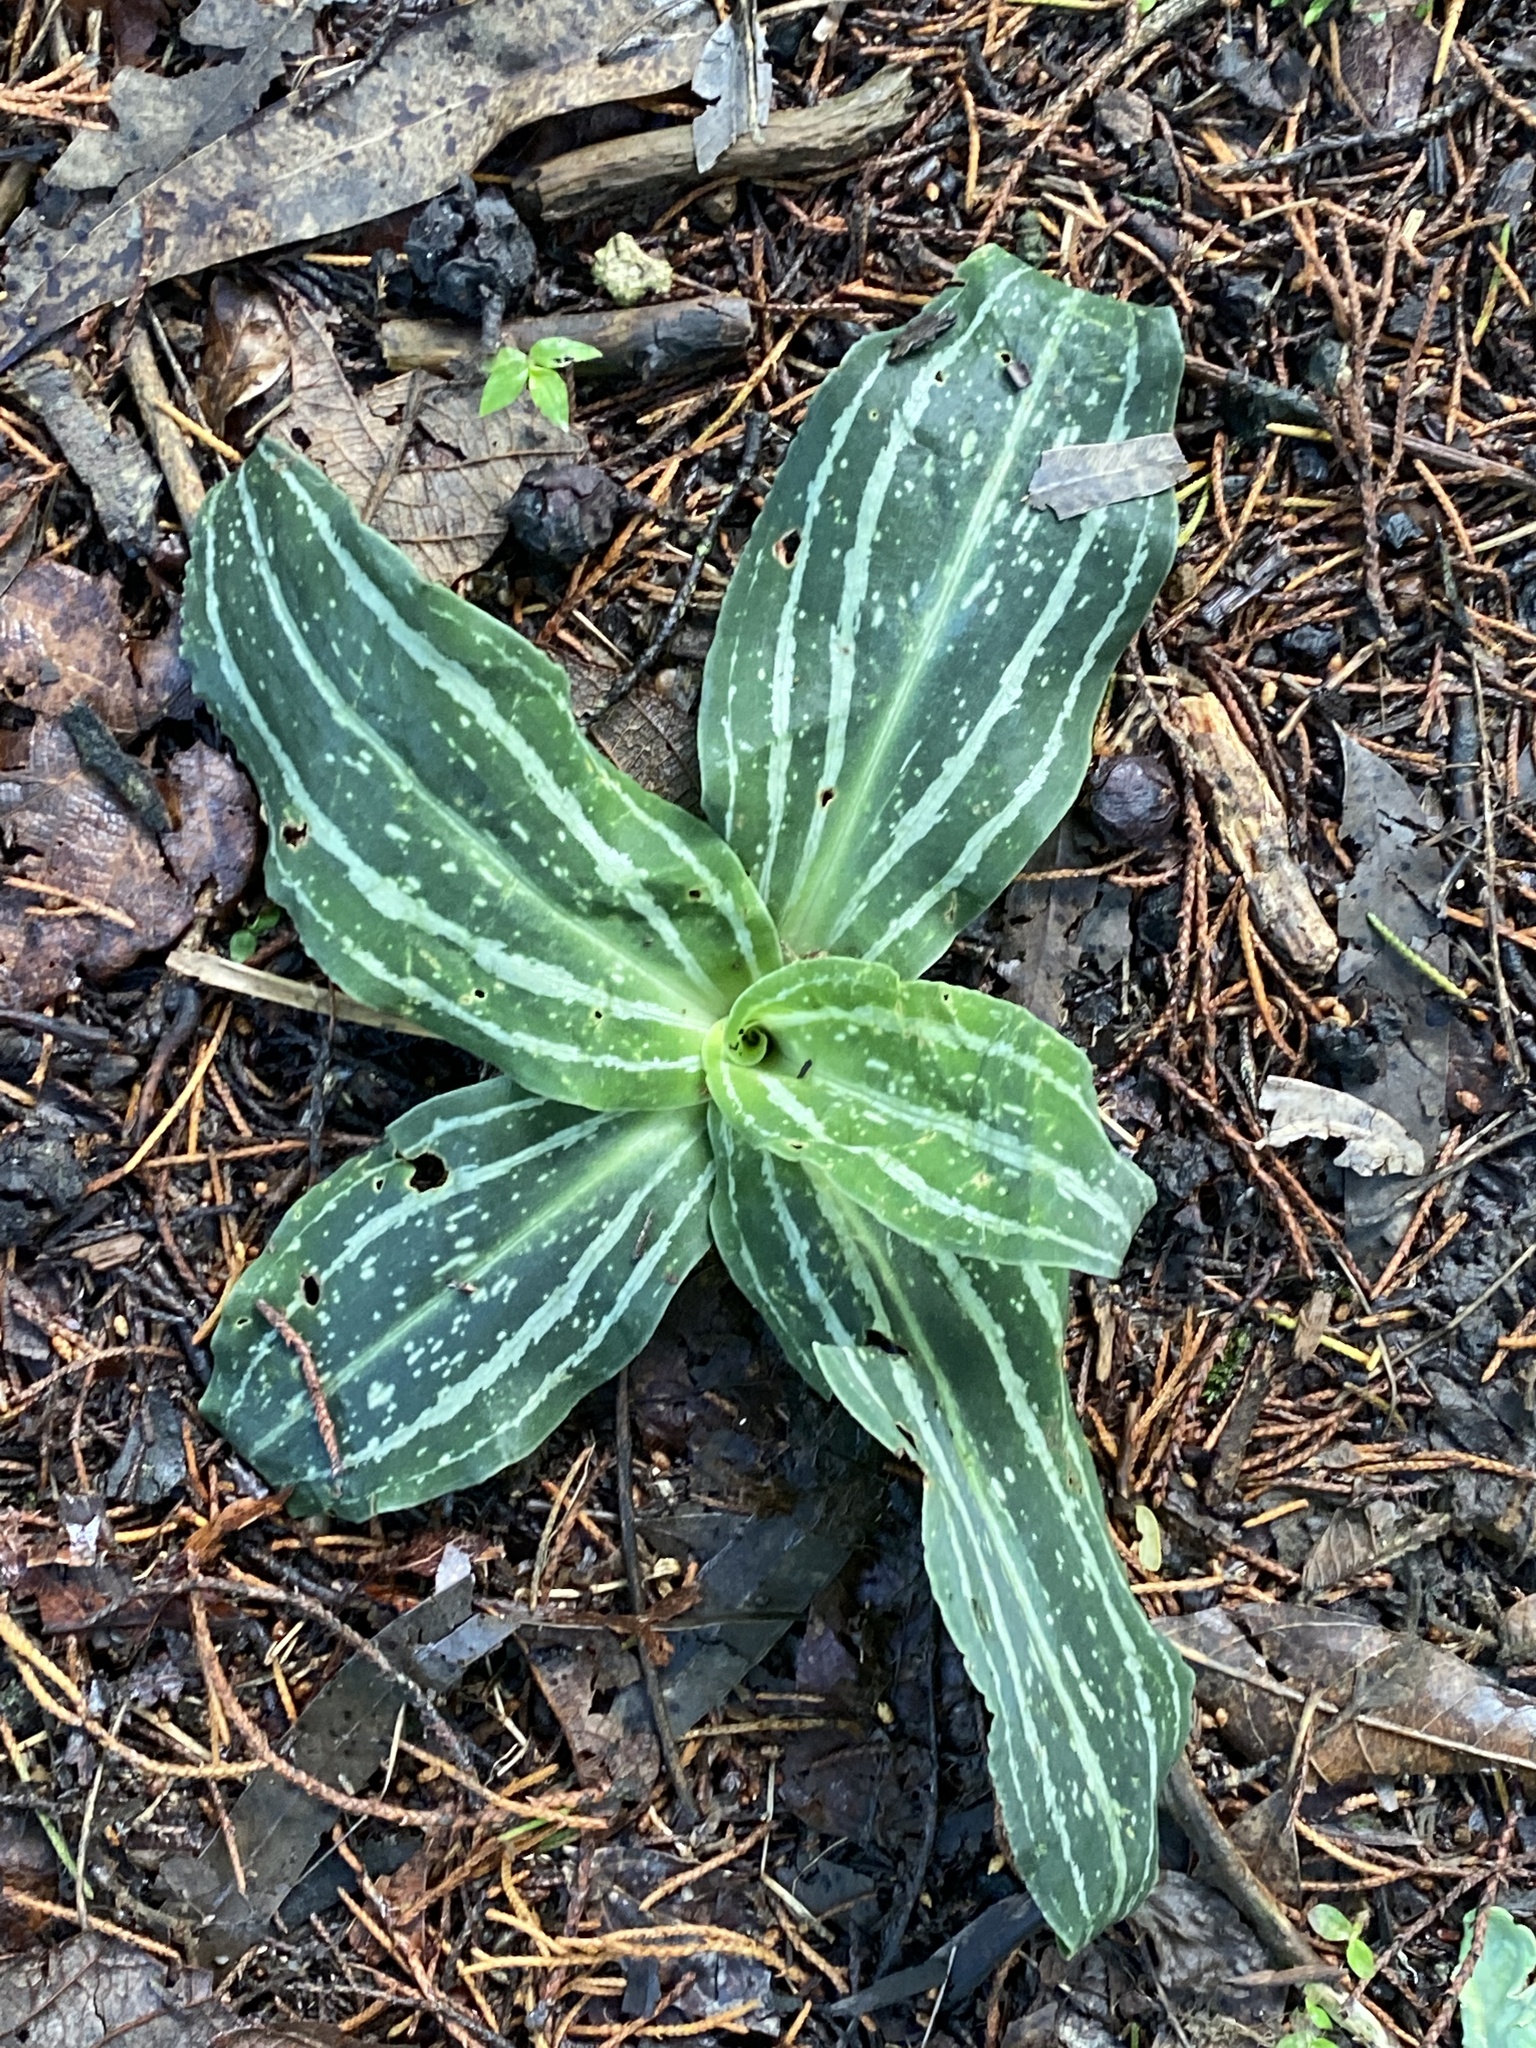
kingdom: Plantae
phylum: Tracheophyta
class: Liliopsida
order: Asparagales
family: Orchidaceae
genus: Sarcoglottis
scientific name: Sarcoglottis cerina
